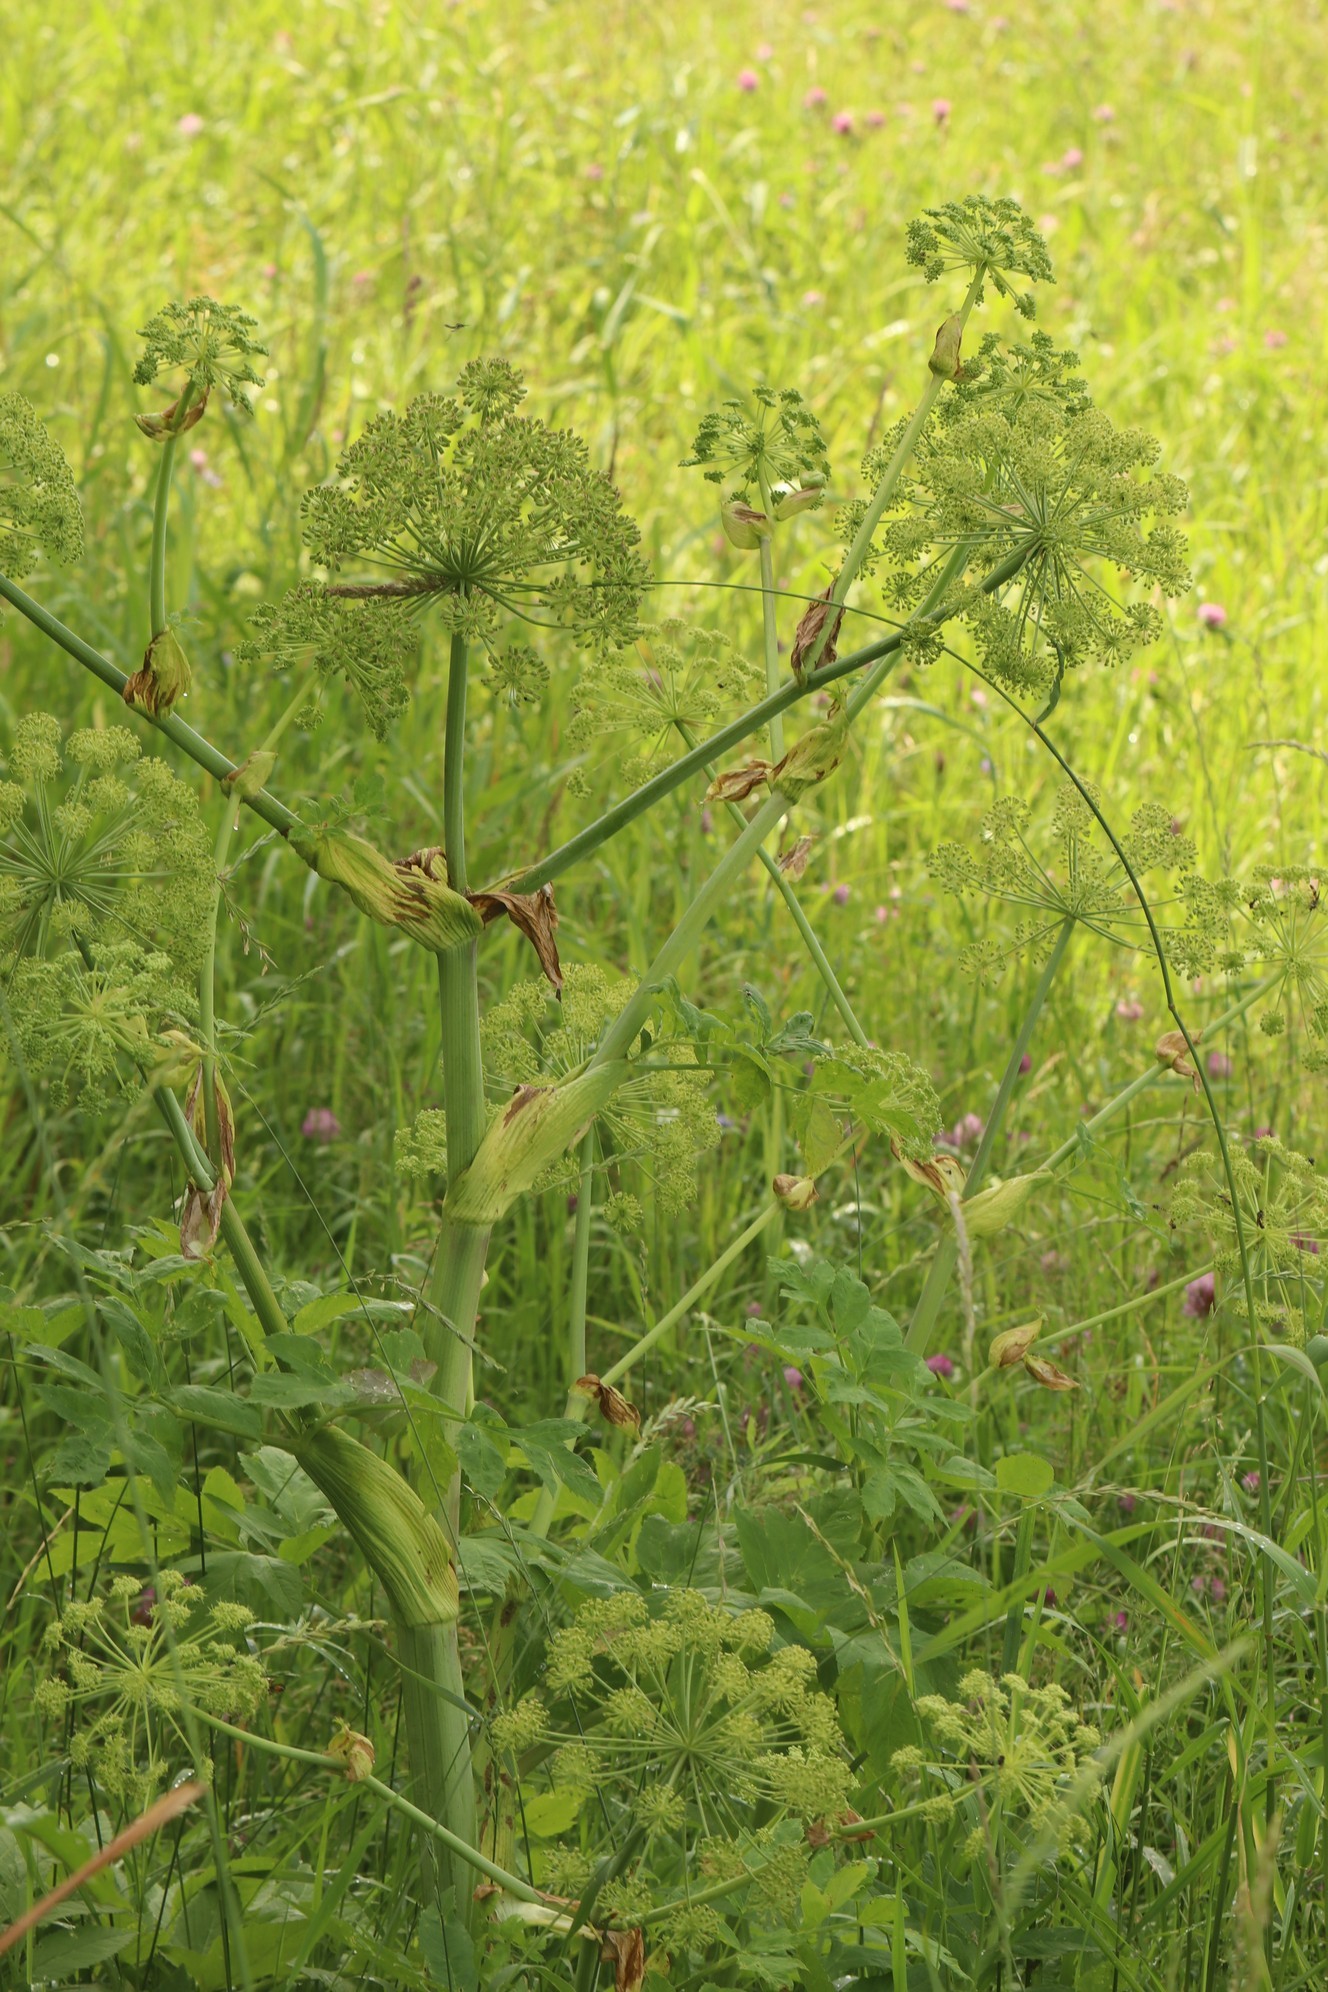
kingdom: Plantae
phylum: Tracheophyta
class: Magnoliopsida
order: Apiales
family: Apiaceae
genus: Angelica
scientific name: Angelica decurrens
